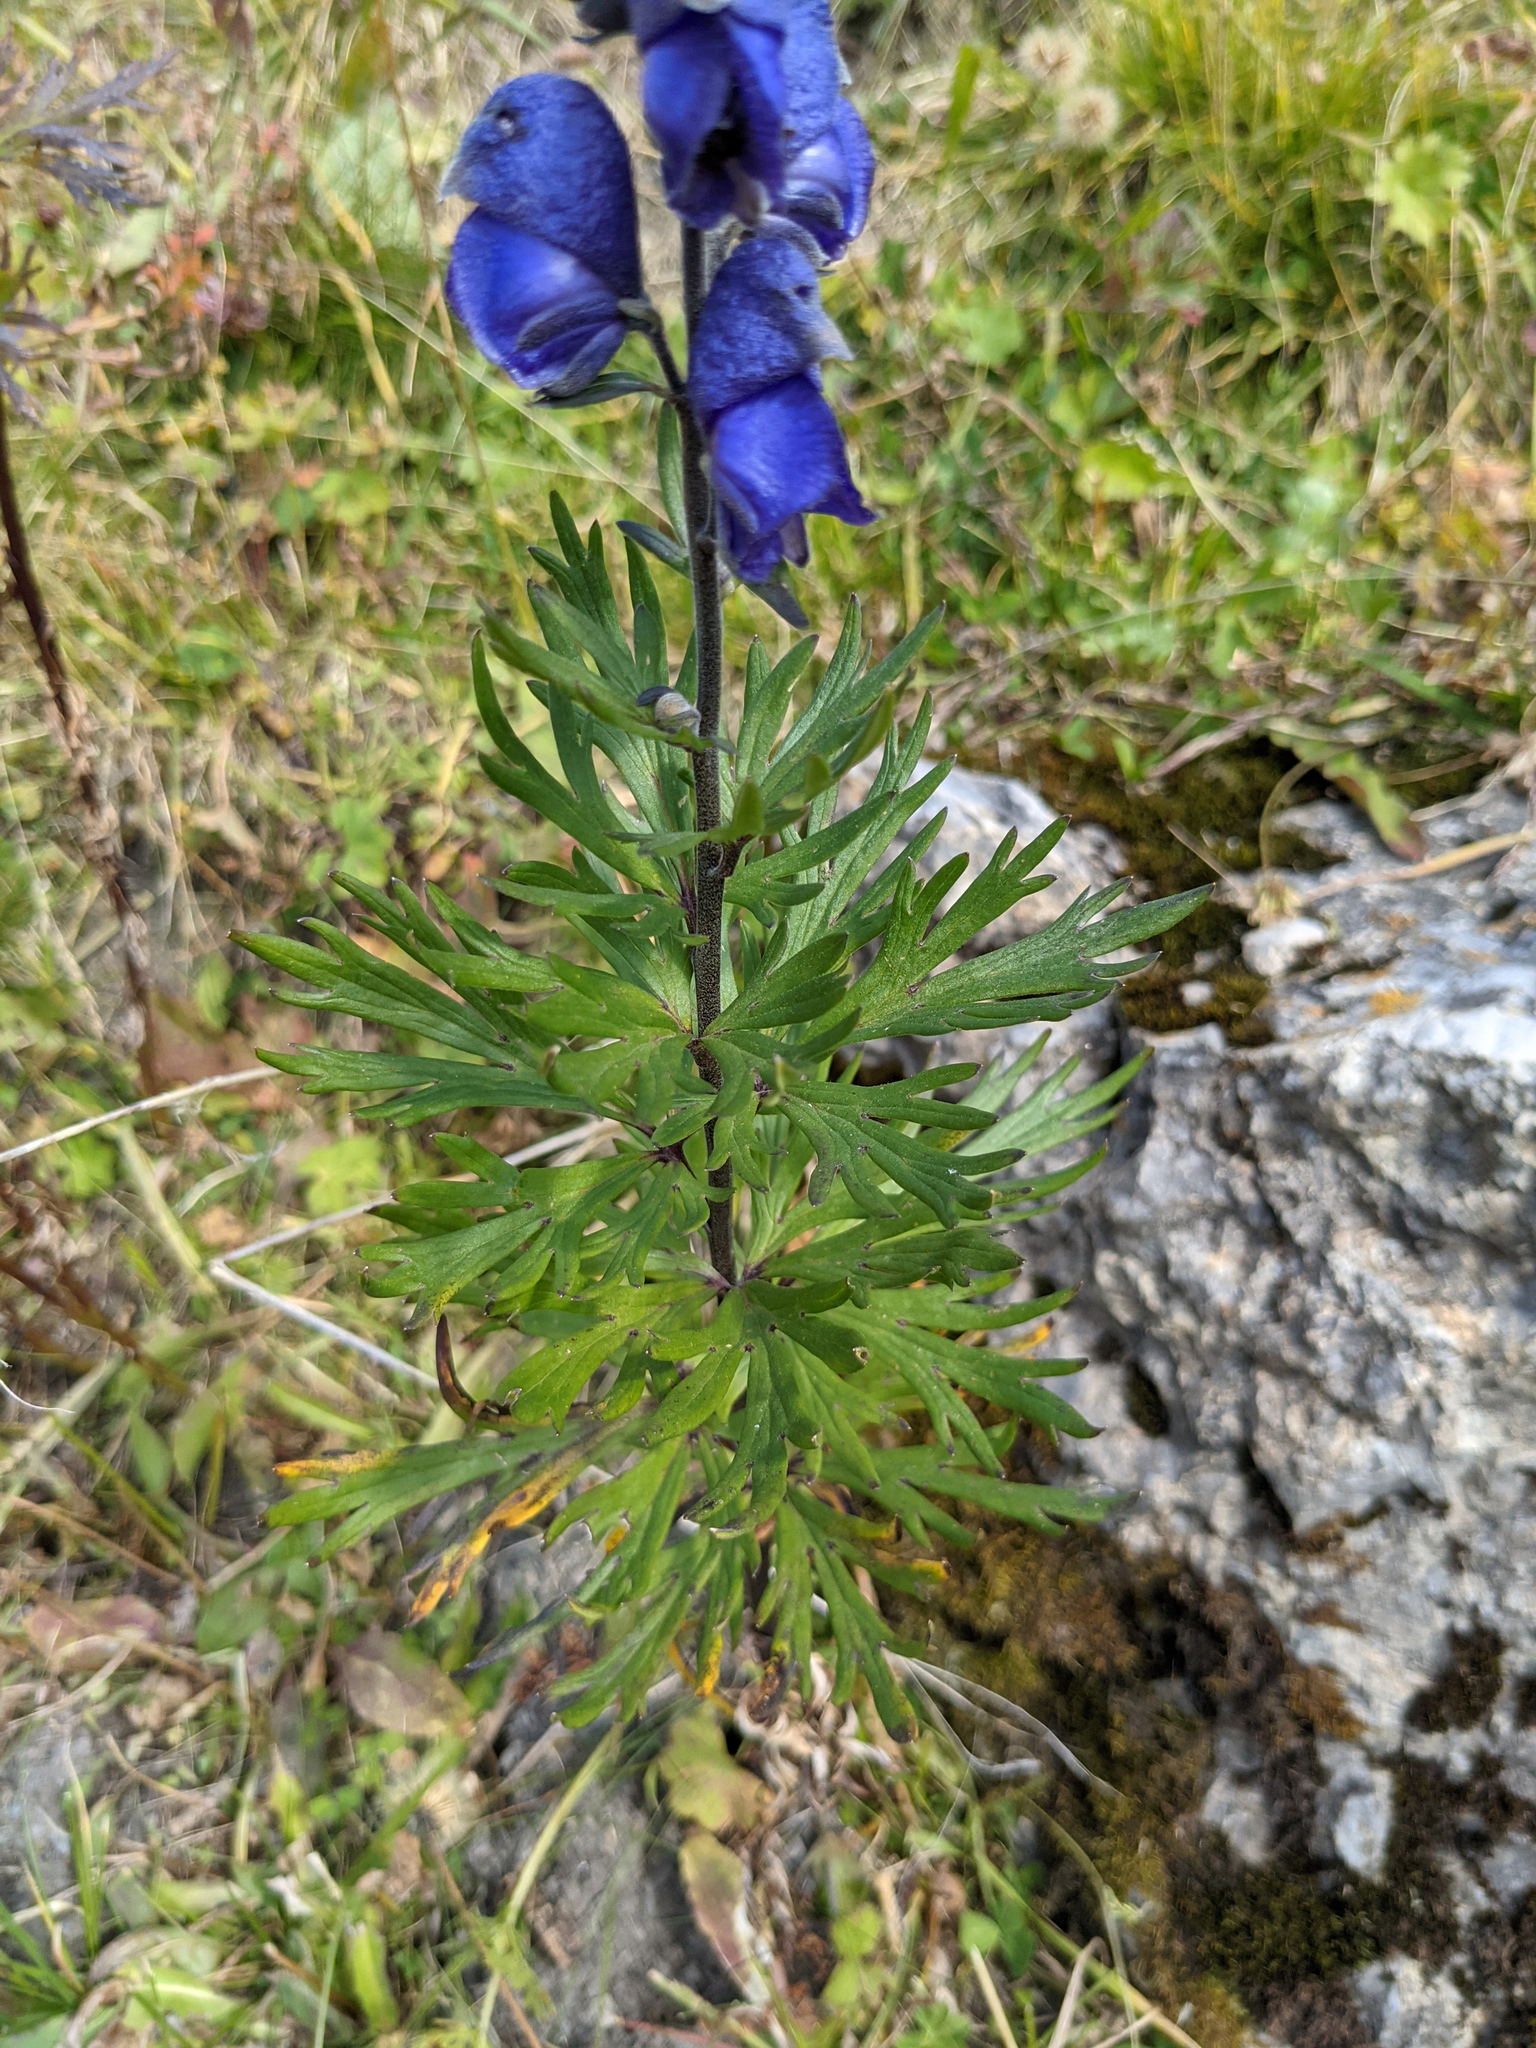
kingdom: Plantae
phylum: Tracheophyta
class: Magnoliopsida
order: Ranunculales
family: Ranunculaceae
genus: Aconitum
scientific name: Aconitum napellus
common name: Garden monkshood
